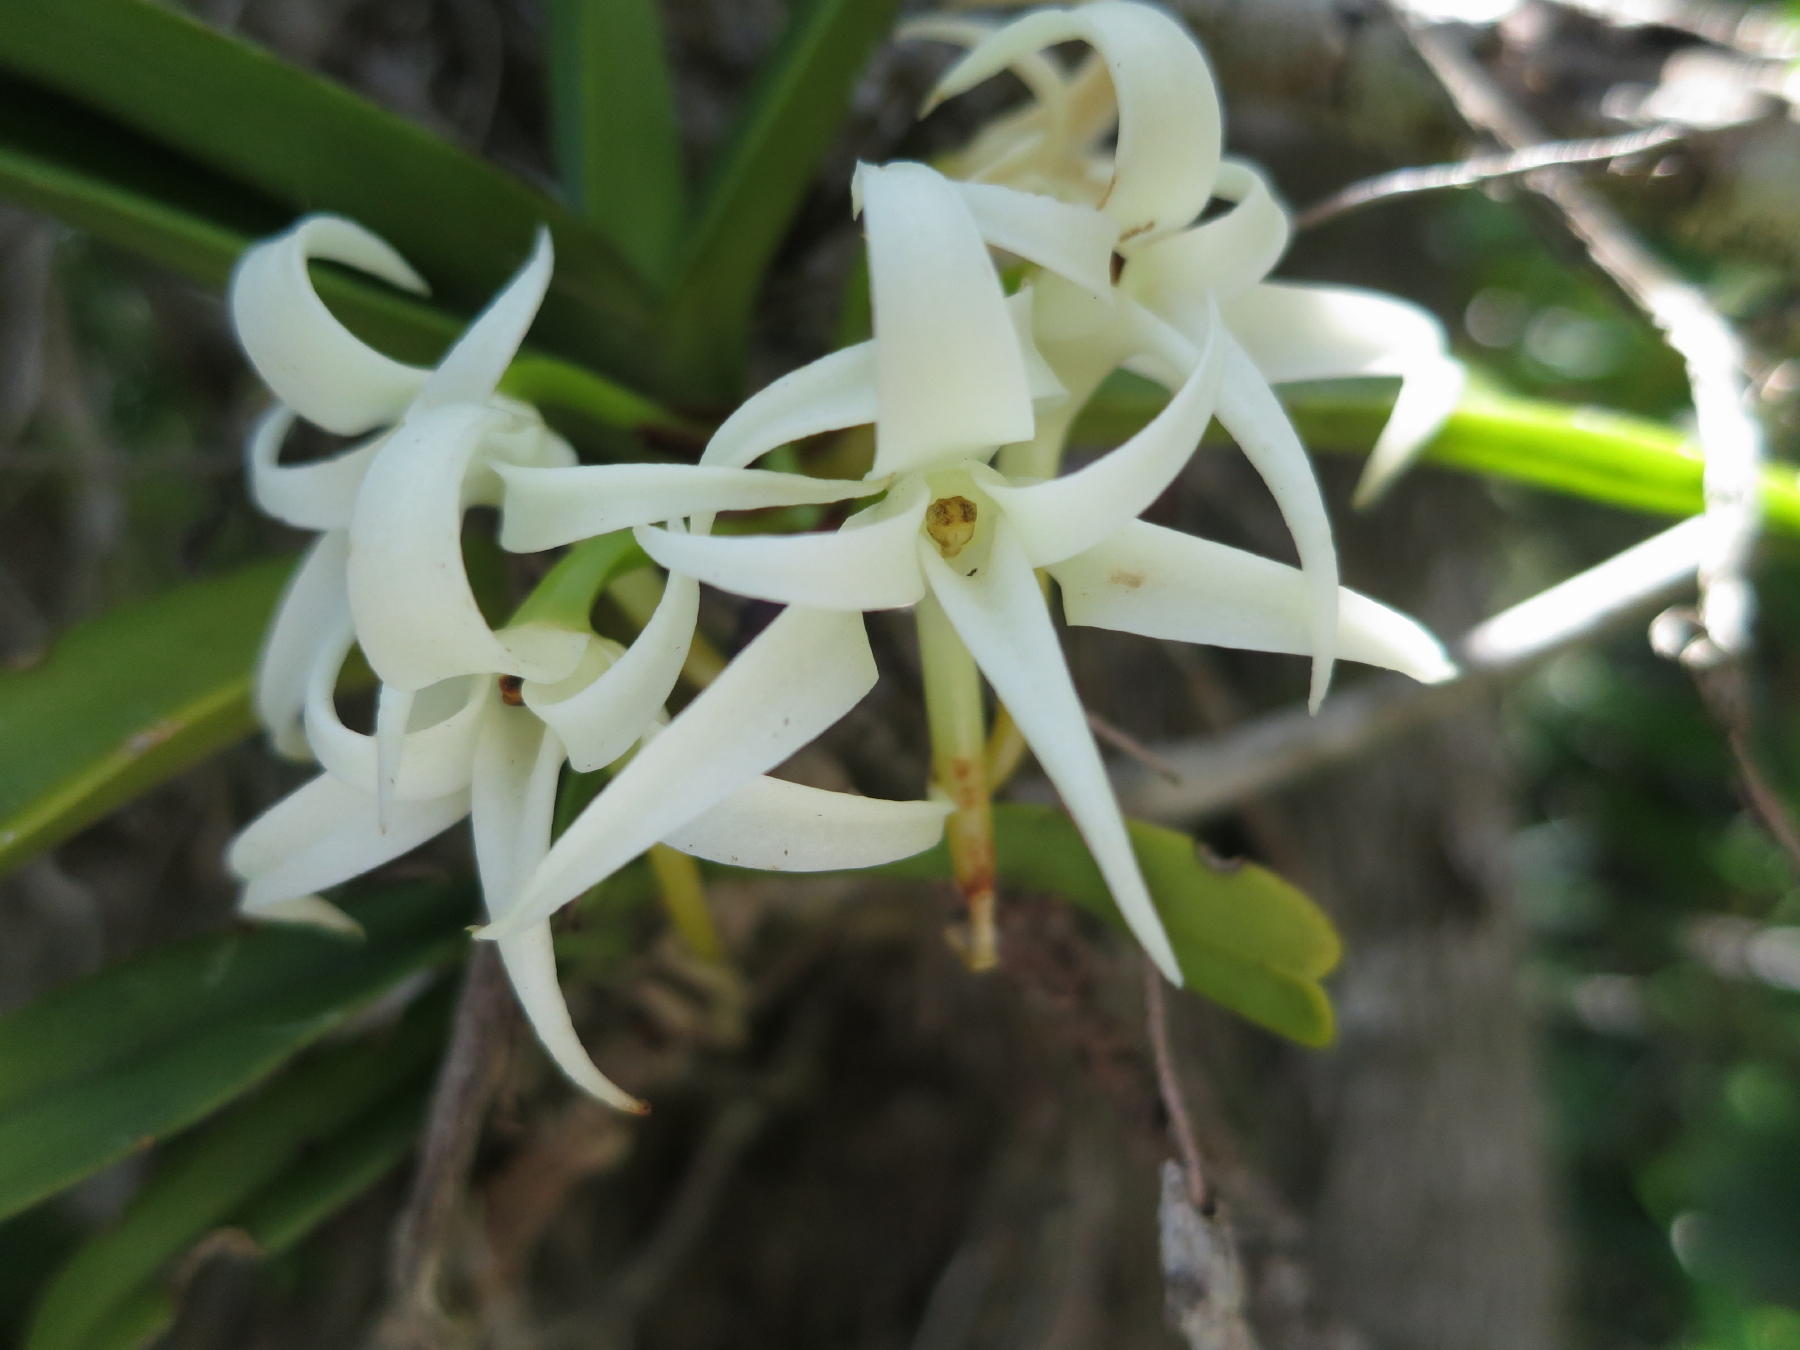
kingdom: Plantae
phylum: Tracheophyta
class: Liliopsida
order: Asparagales
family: Orchidaceae
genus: Cyrtorchis
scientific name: Cyrtorchis arcuata
